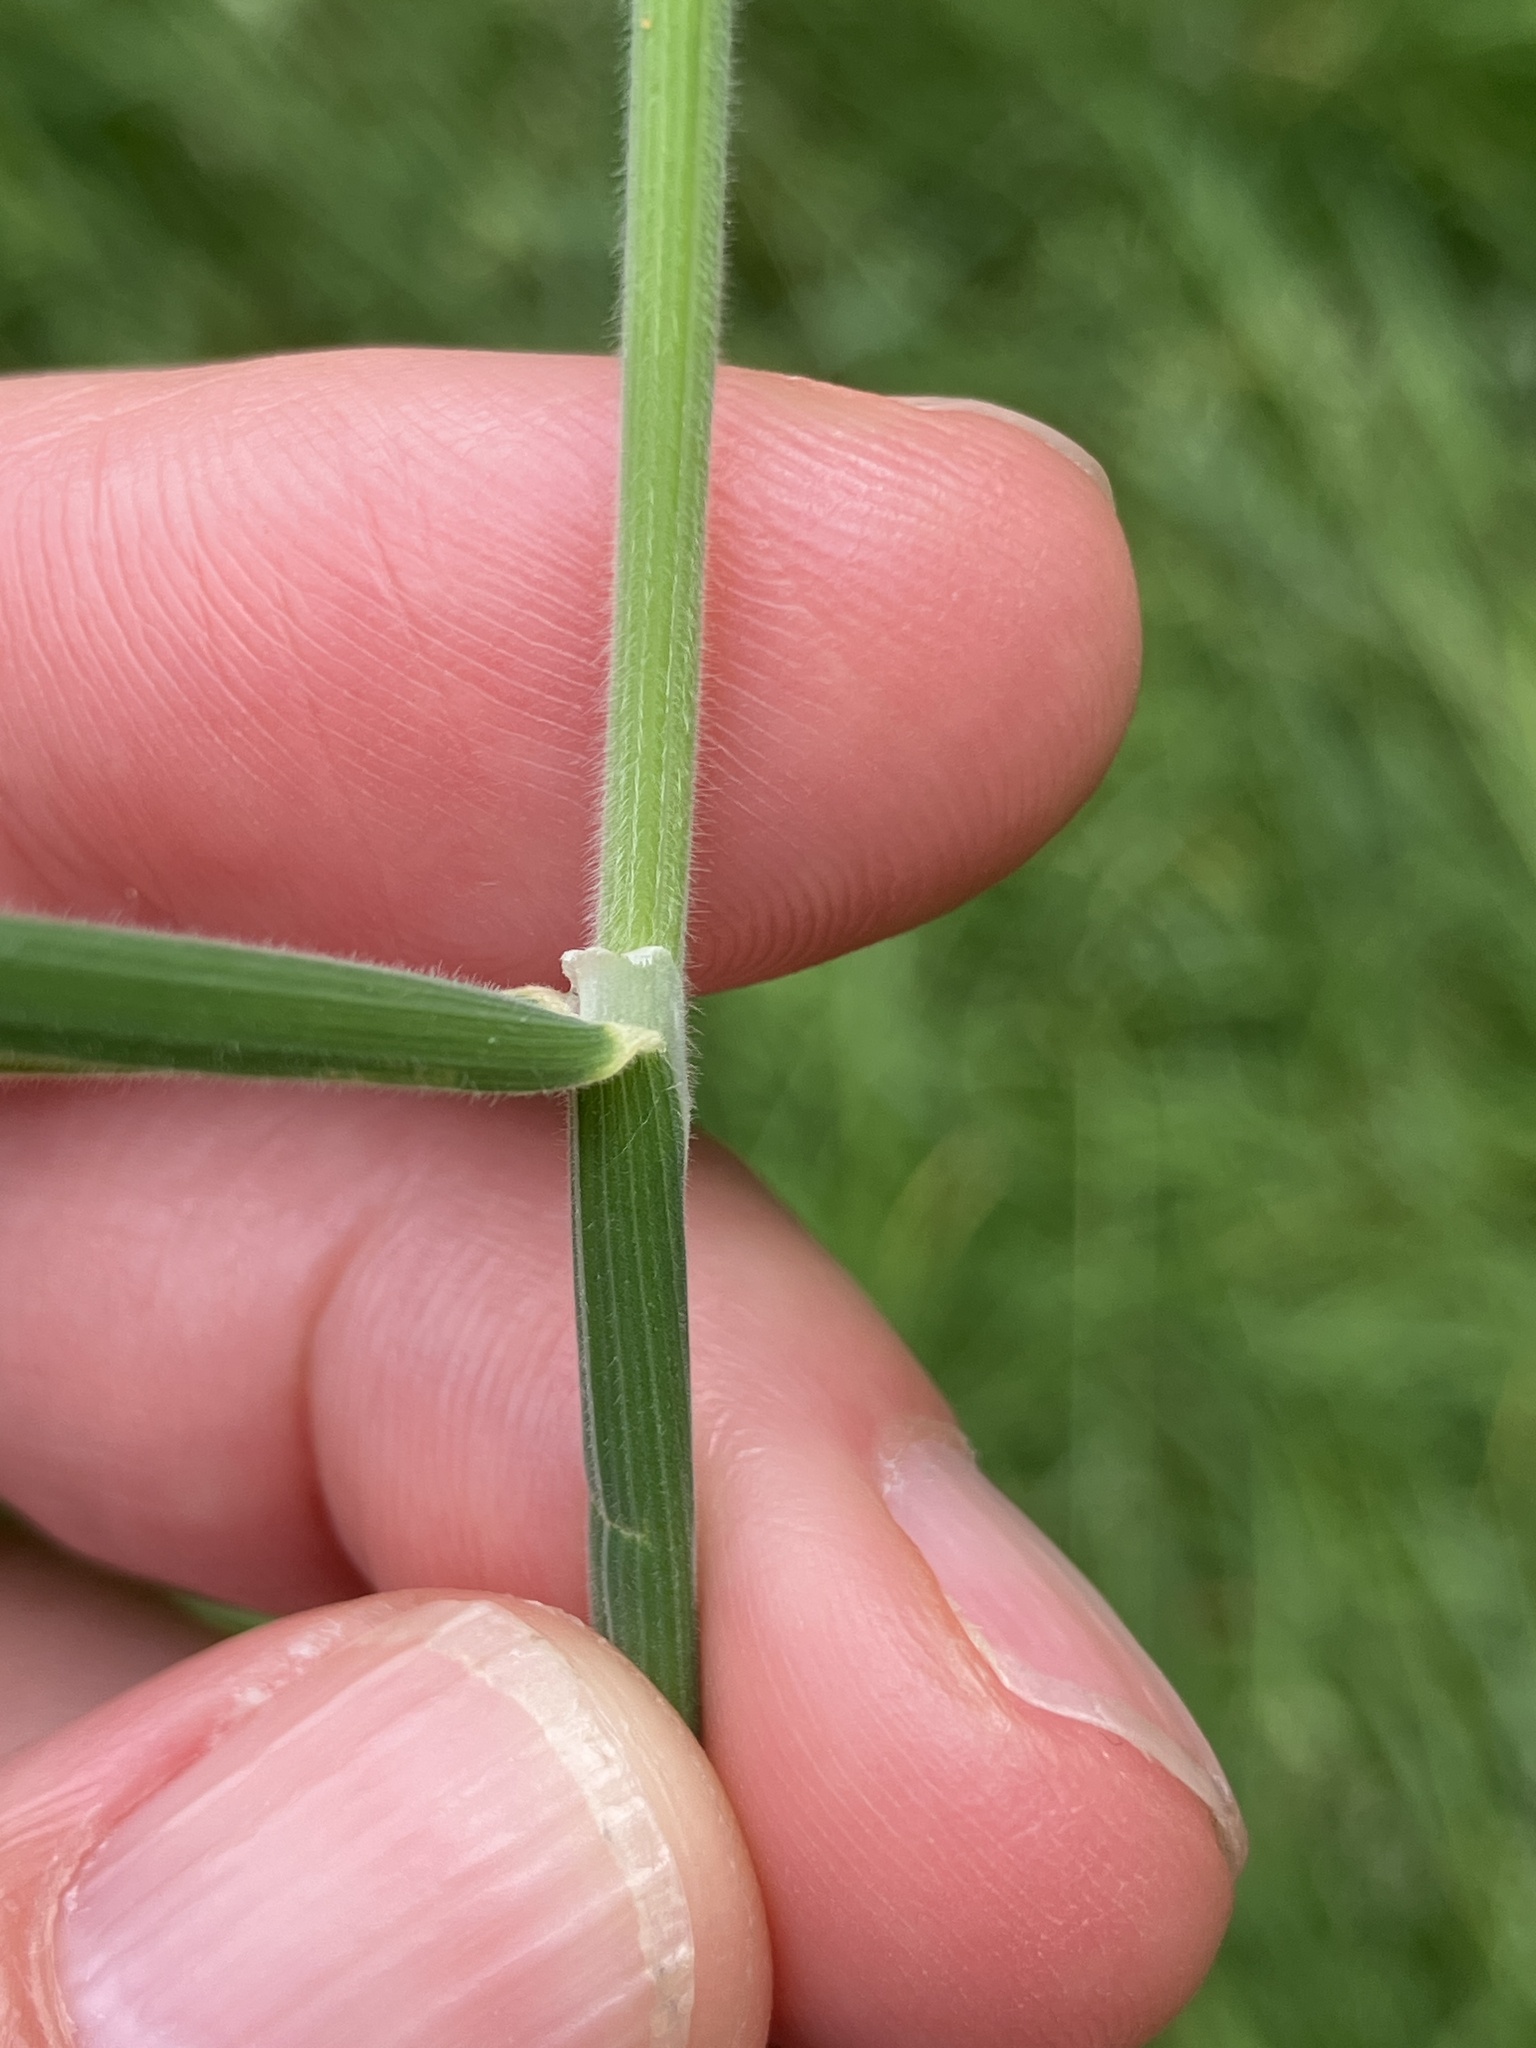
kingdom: Plantae
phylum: Tracheophyta
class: Liliopsida
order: Poales
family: Poaceae
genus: Holcus
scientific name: Holcus lanatus
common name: Yorkshire-fog
